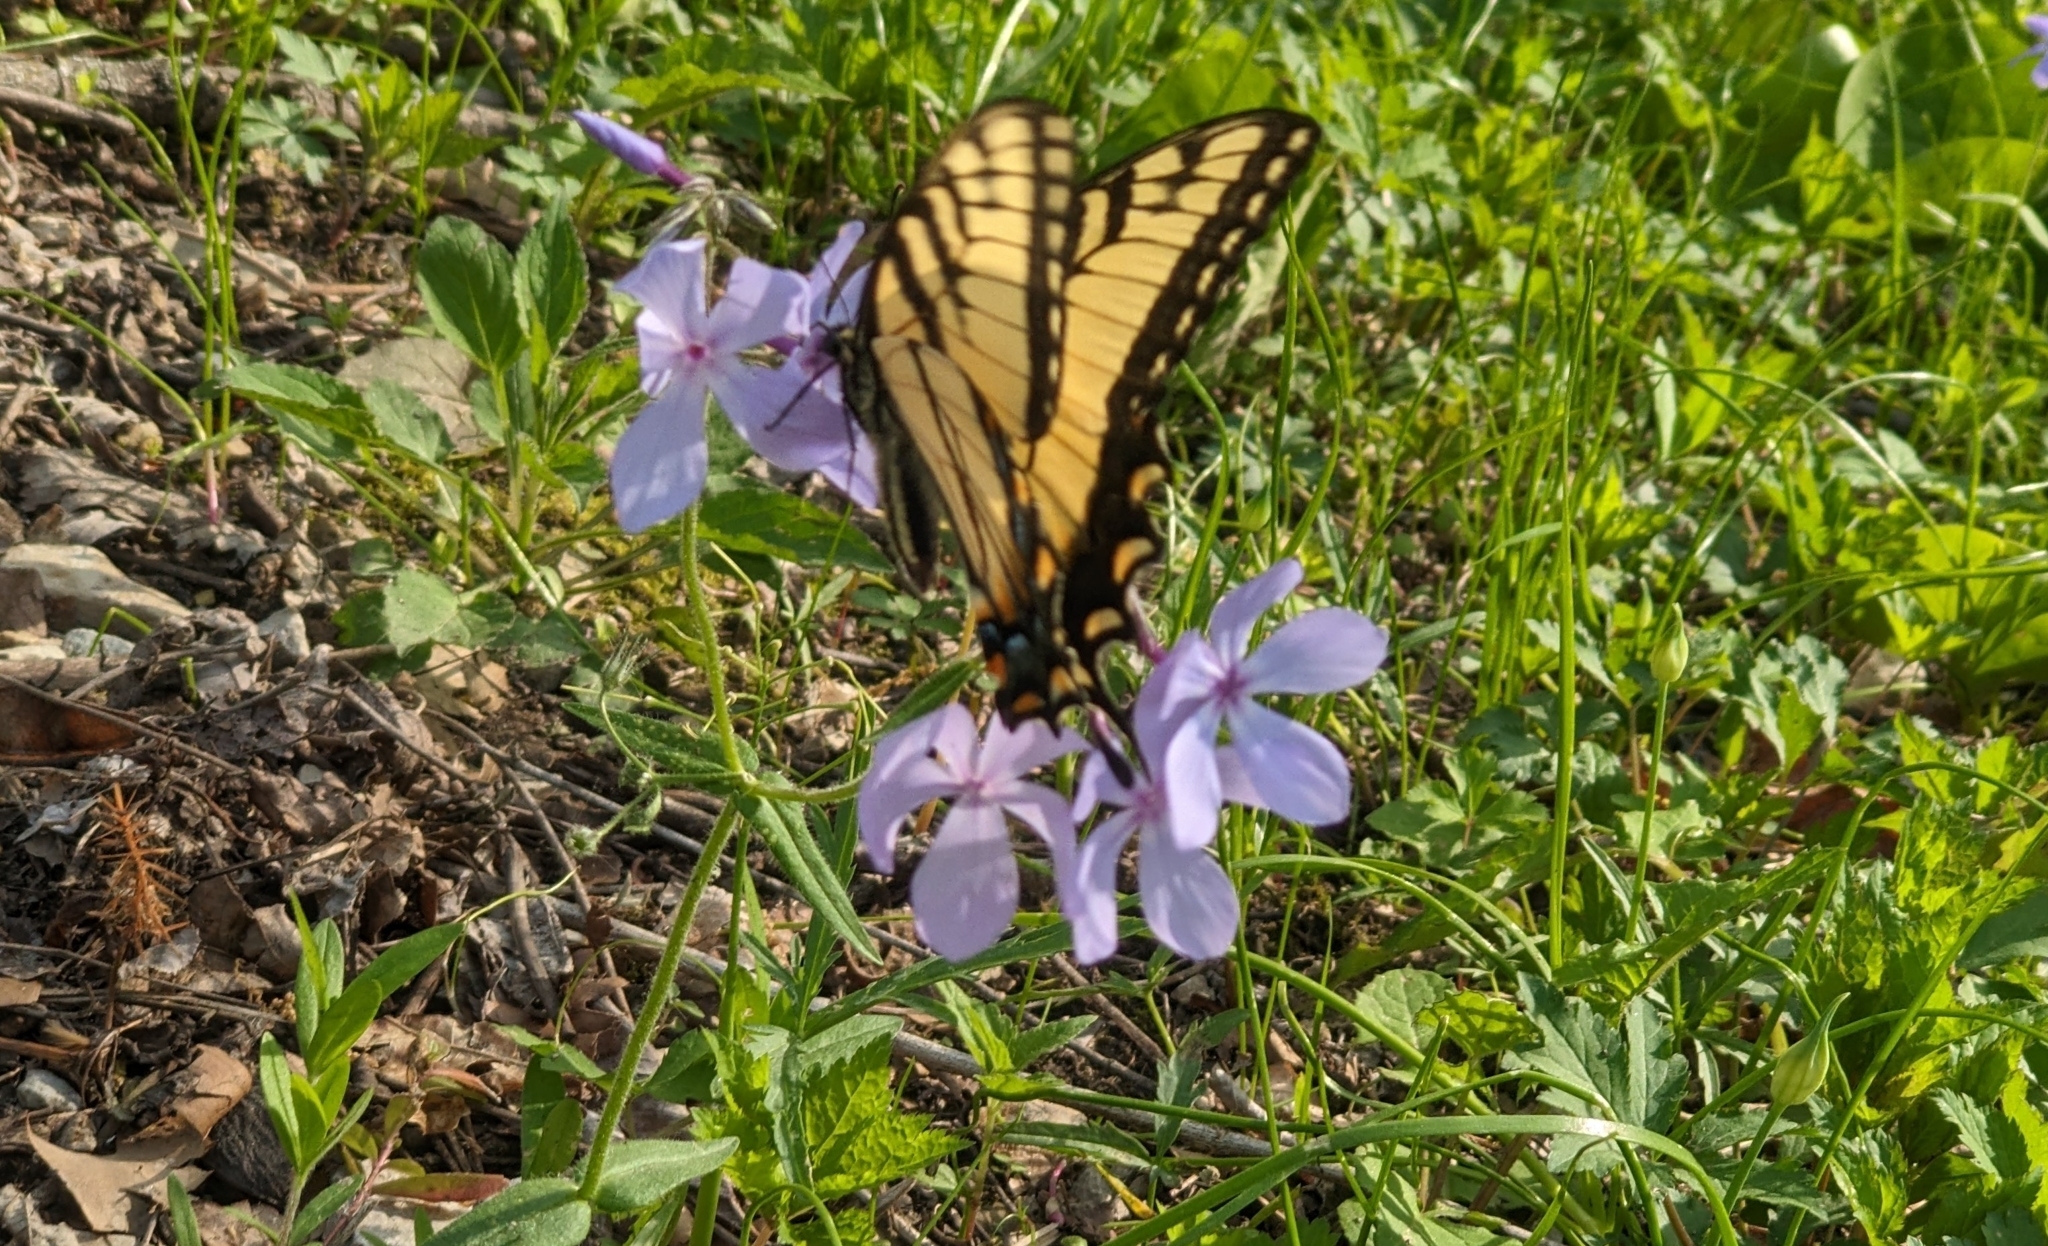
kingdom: Animalia
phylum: Arthropoda
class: Insecta
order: Lepidoptera
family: Papilionidae
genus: Papilio
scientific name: Papilio glaucus
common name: Tiger swallowtail
